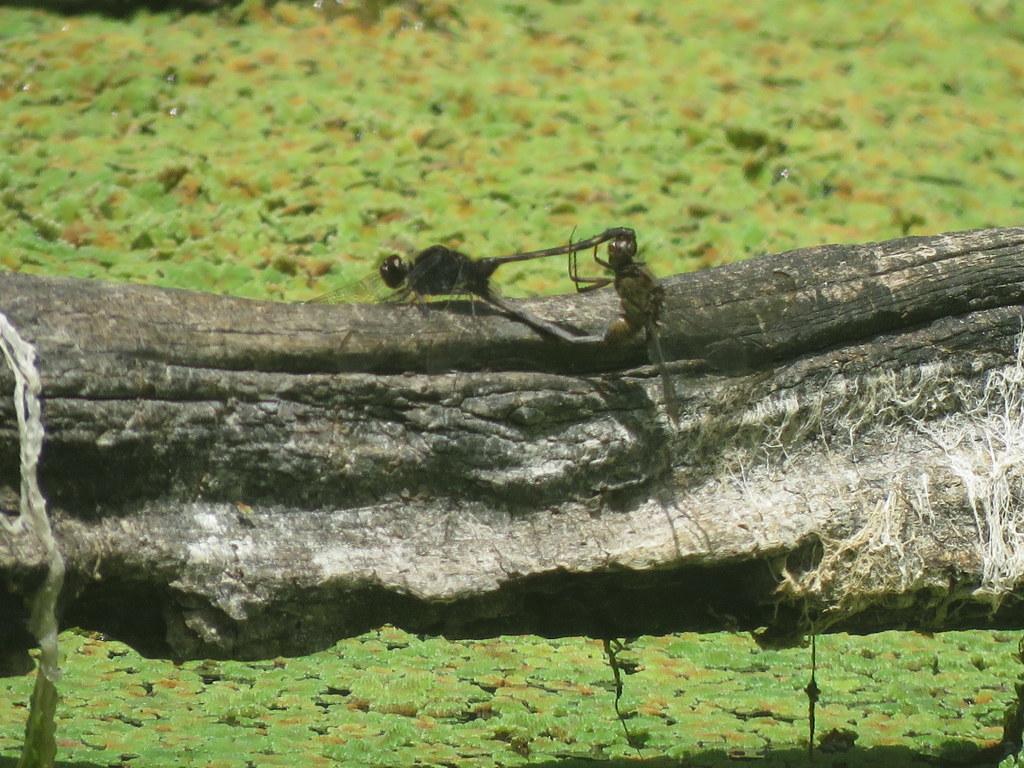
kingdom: Animalia
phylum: Arthropoda
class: Insecta
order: Odonata
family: Libellulidae
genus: Erythemis
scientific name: Erythemis plebeja
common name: Pin-tailed pondhawk
